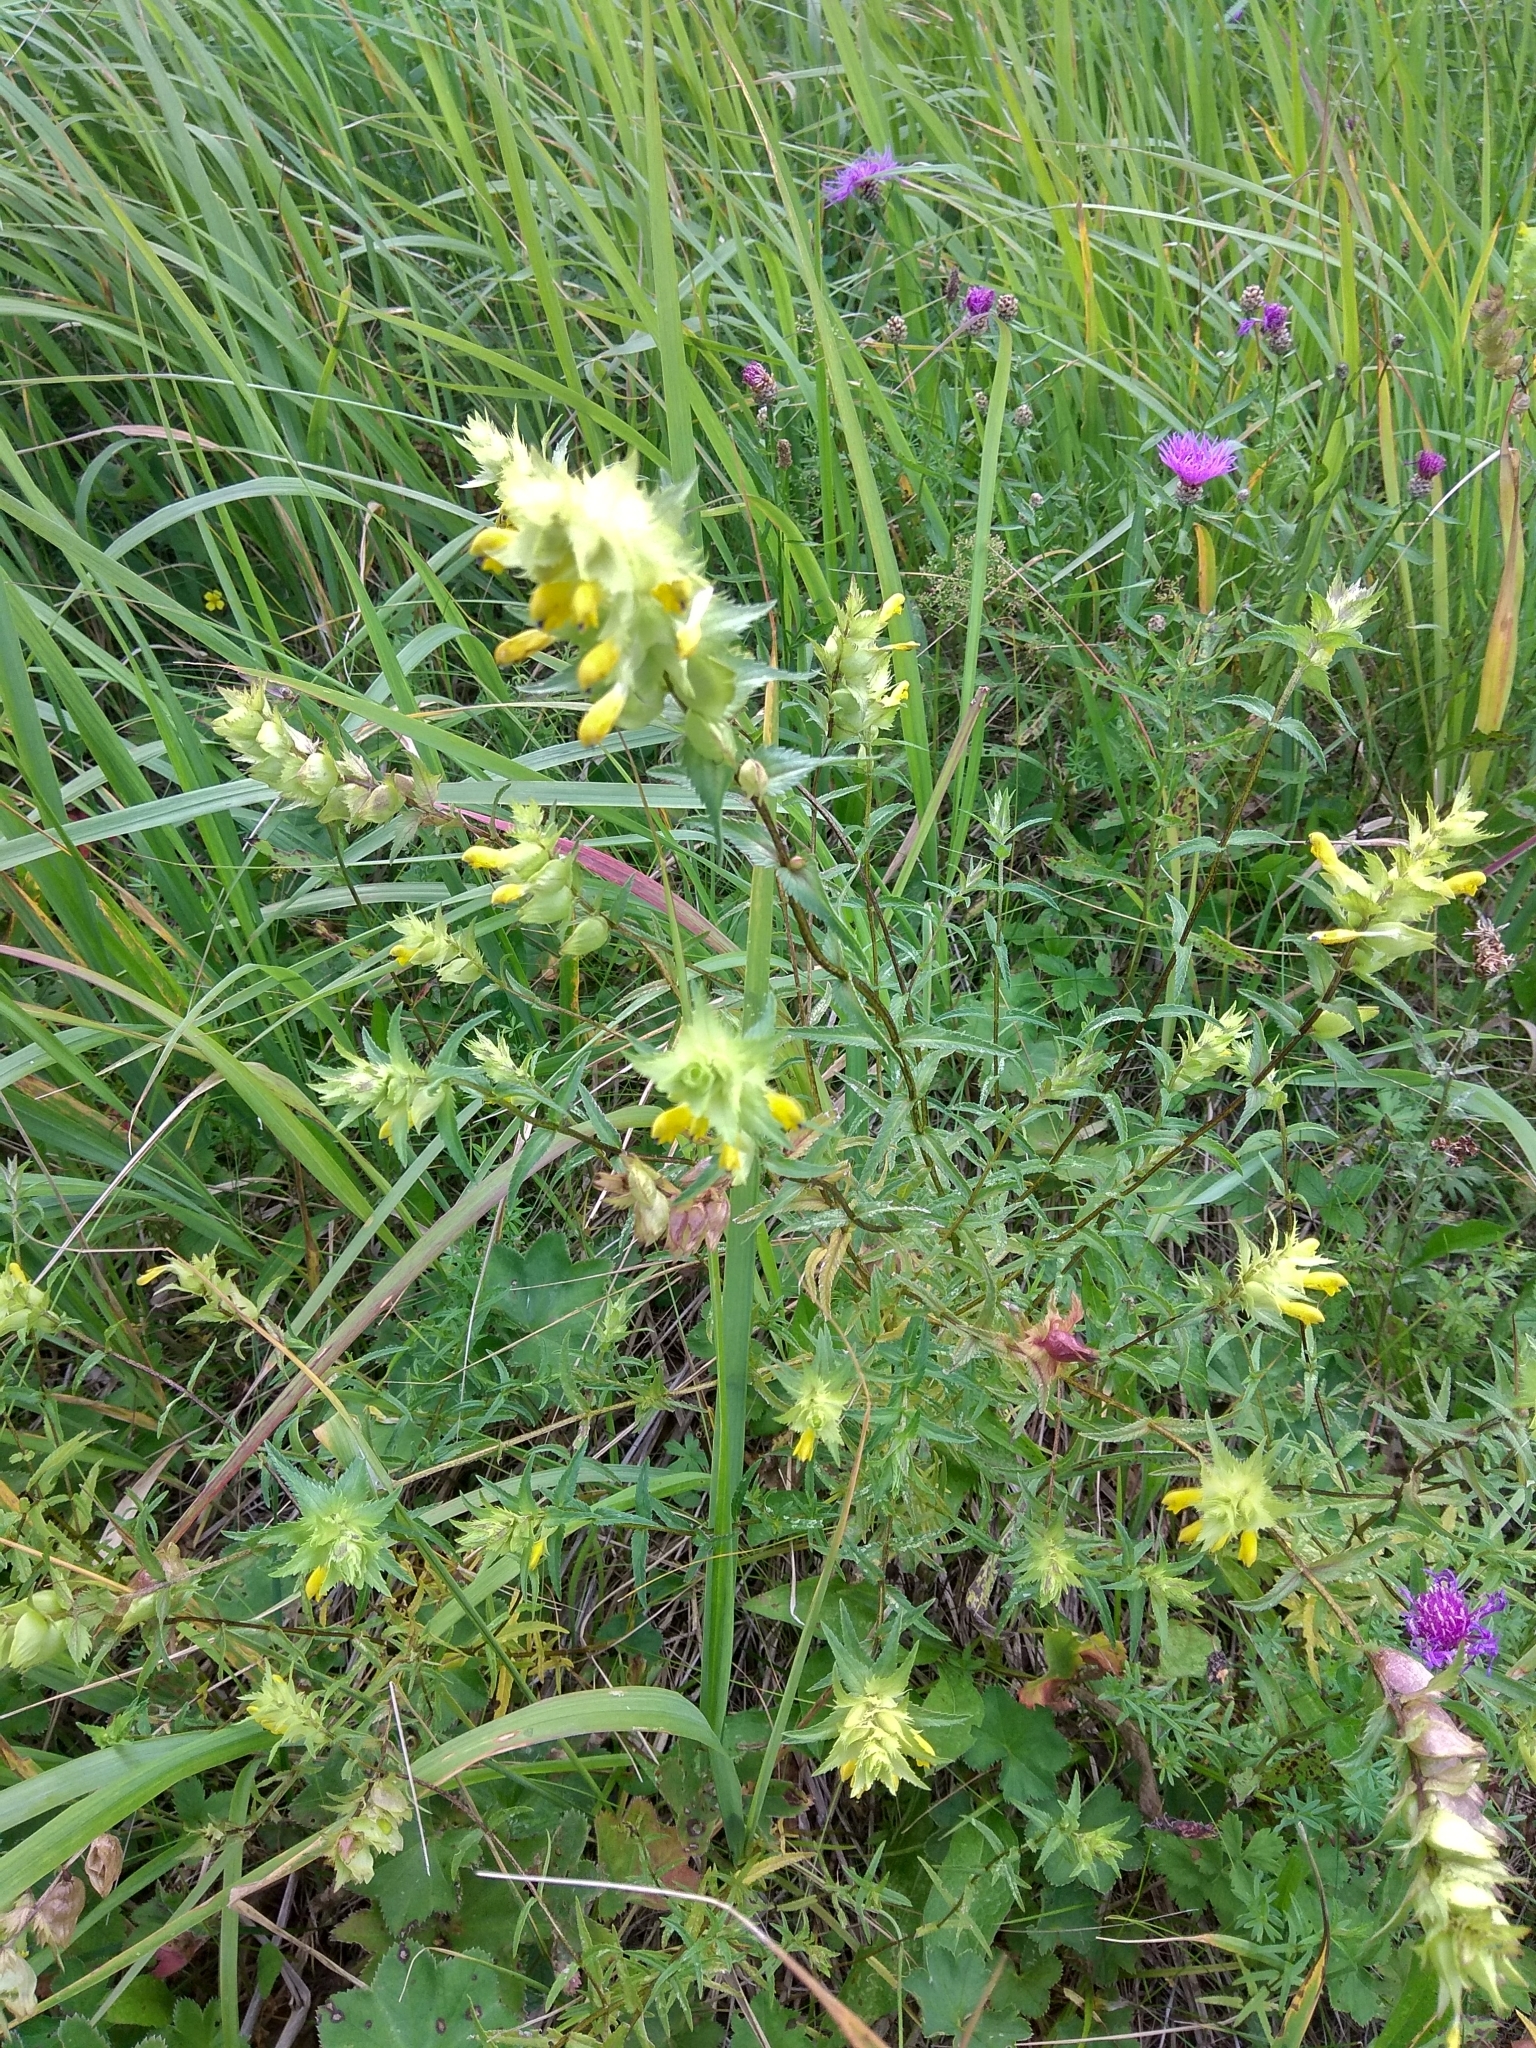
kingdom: Plantae
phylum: Tracheophyta
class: Magnoliopsida
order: Lamiales
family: Orobanchaceae
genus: Rhinanthus
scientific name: Rhinanthus serotinus
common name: Late-flowering yellow rattle
